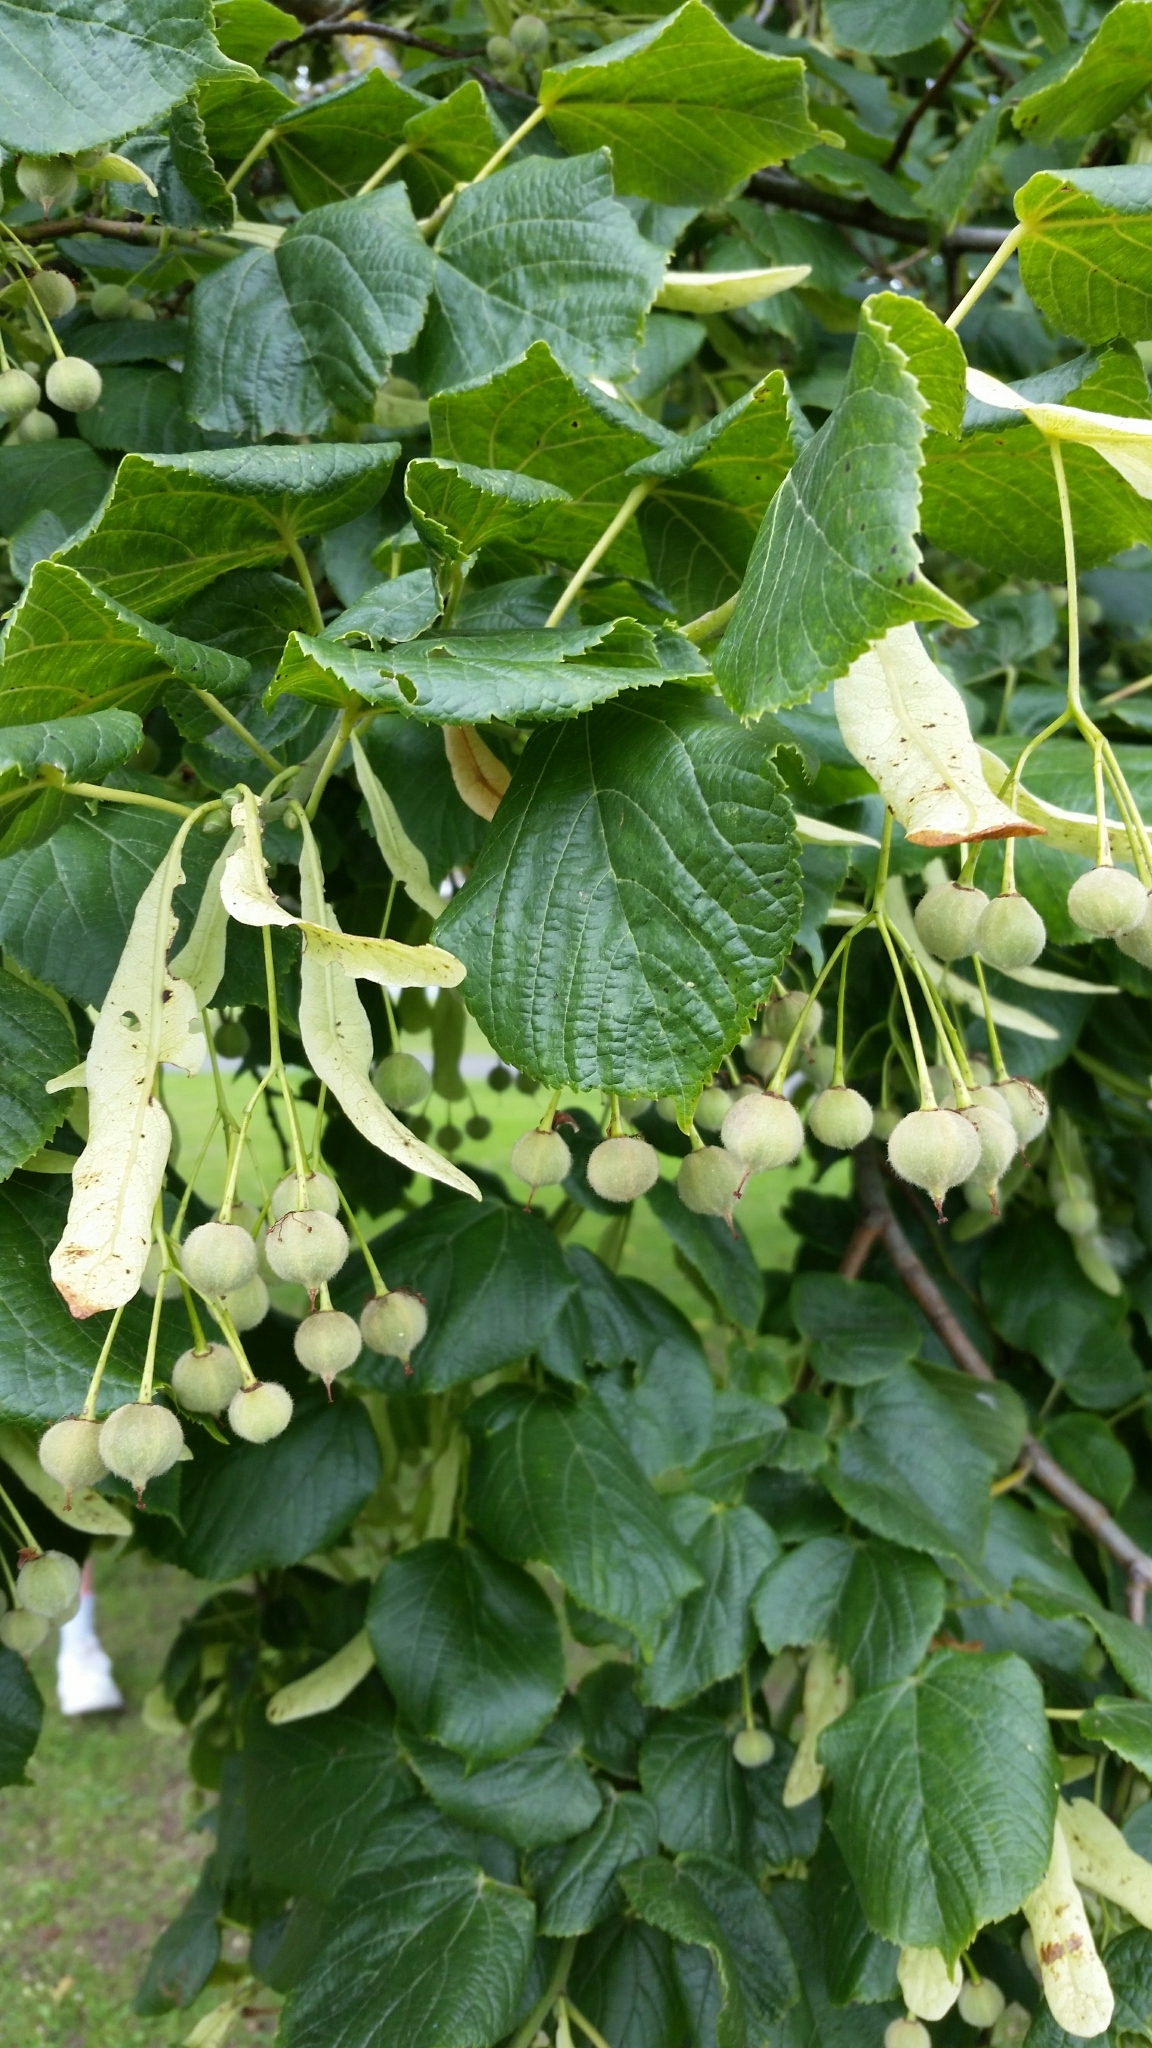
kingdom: Plantae
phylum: Tracheophyta
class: Magnoliopsida
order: Malvales
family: Malvaceae
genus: Tilia
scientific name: Tilia europaea
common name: European linden
